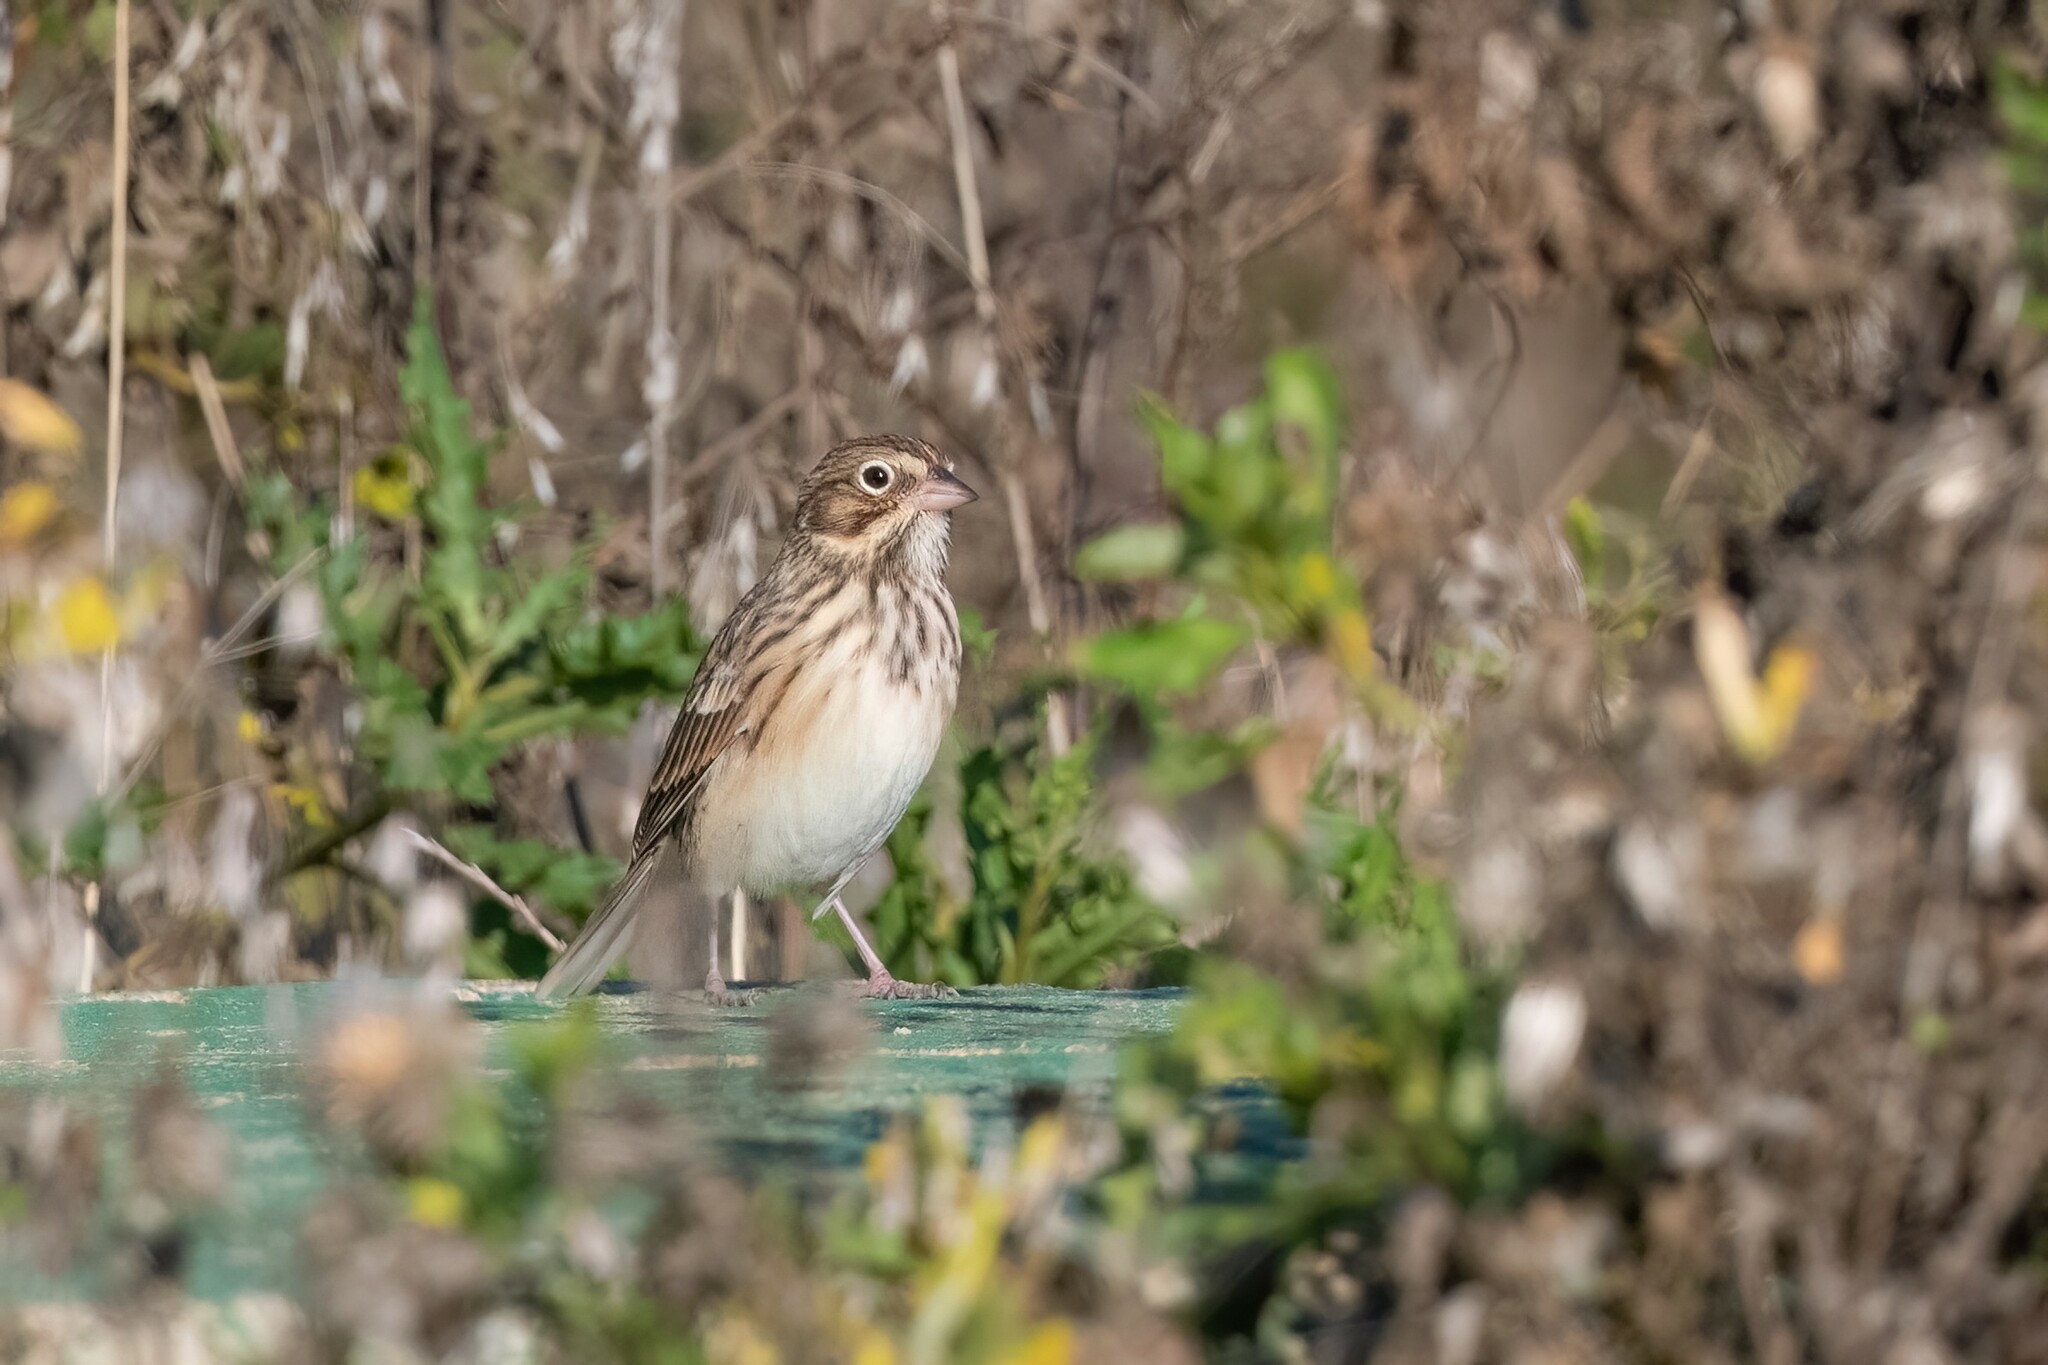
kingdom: Animalia
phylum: Chordata
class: Aves
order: Passeriformes
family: Passerellidae
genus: Pooecetes
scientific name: Pooecetes gramineus
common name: Vesper sparrow
